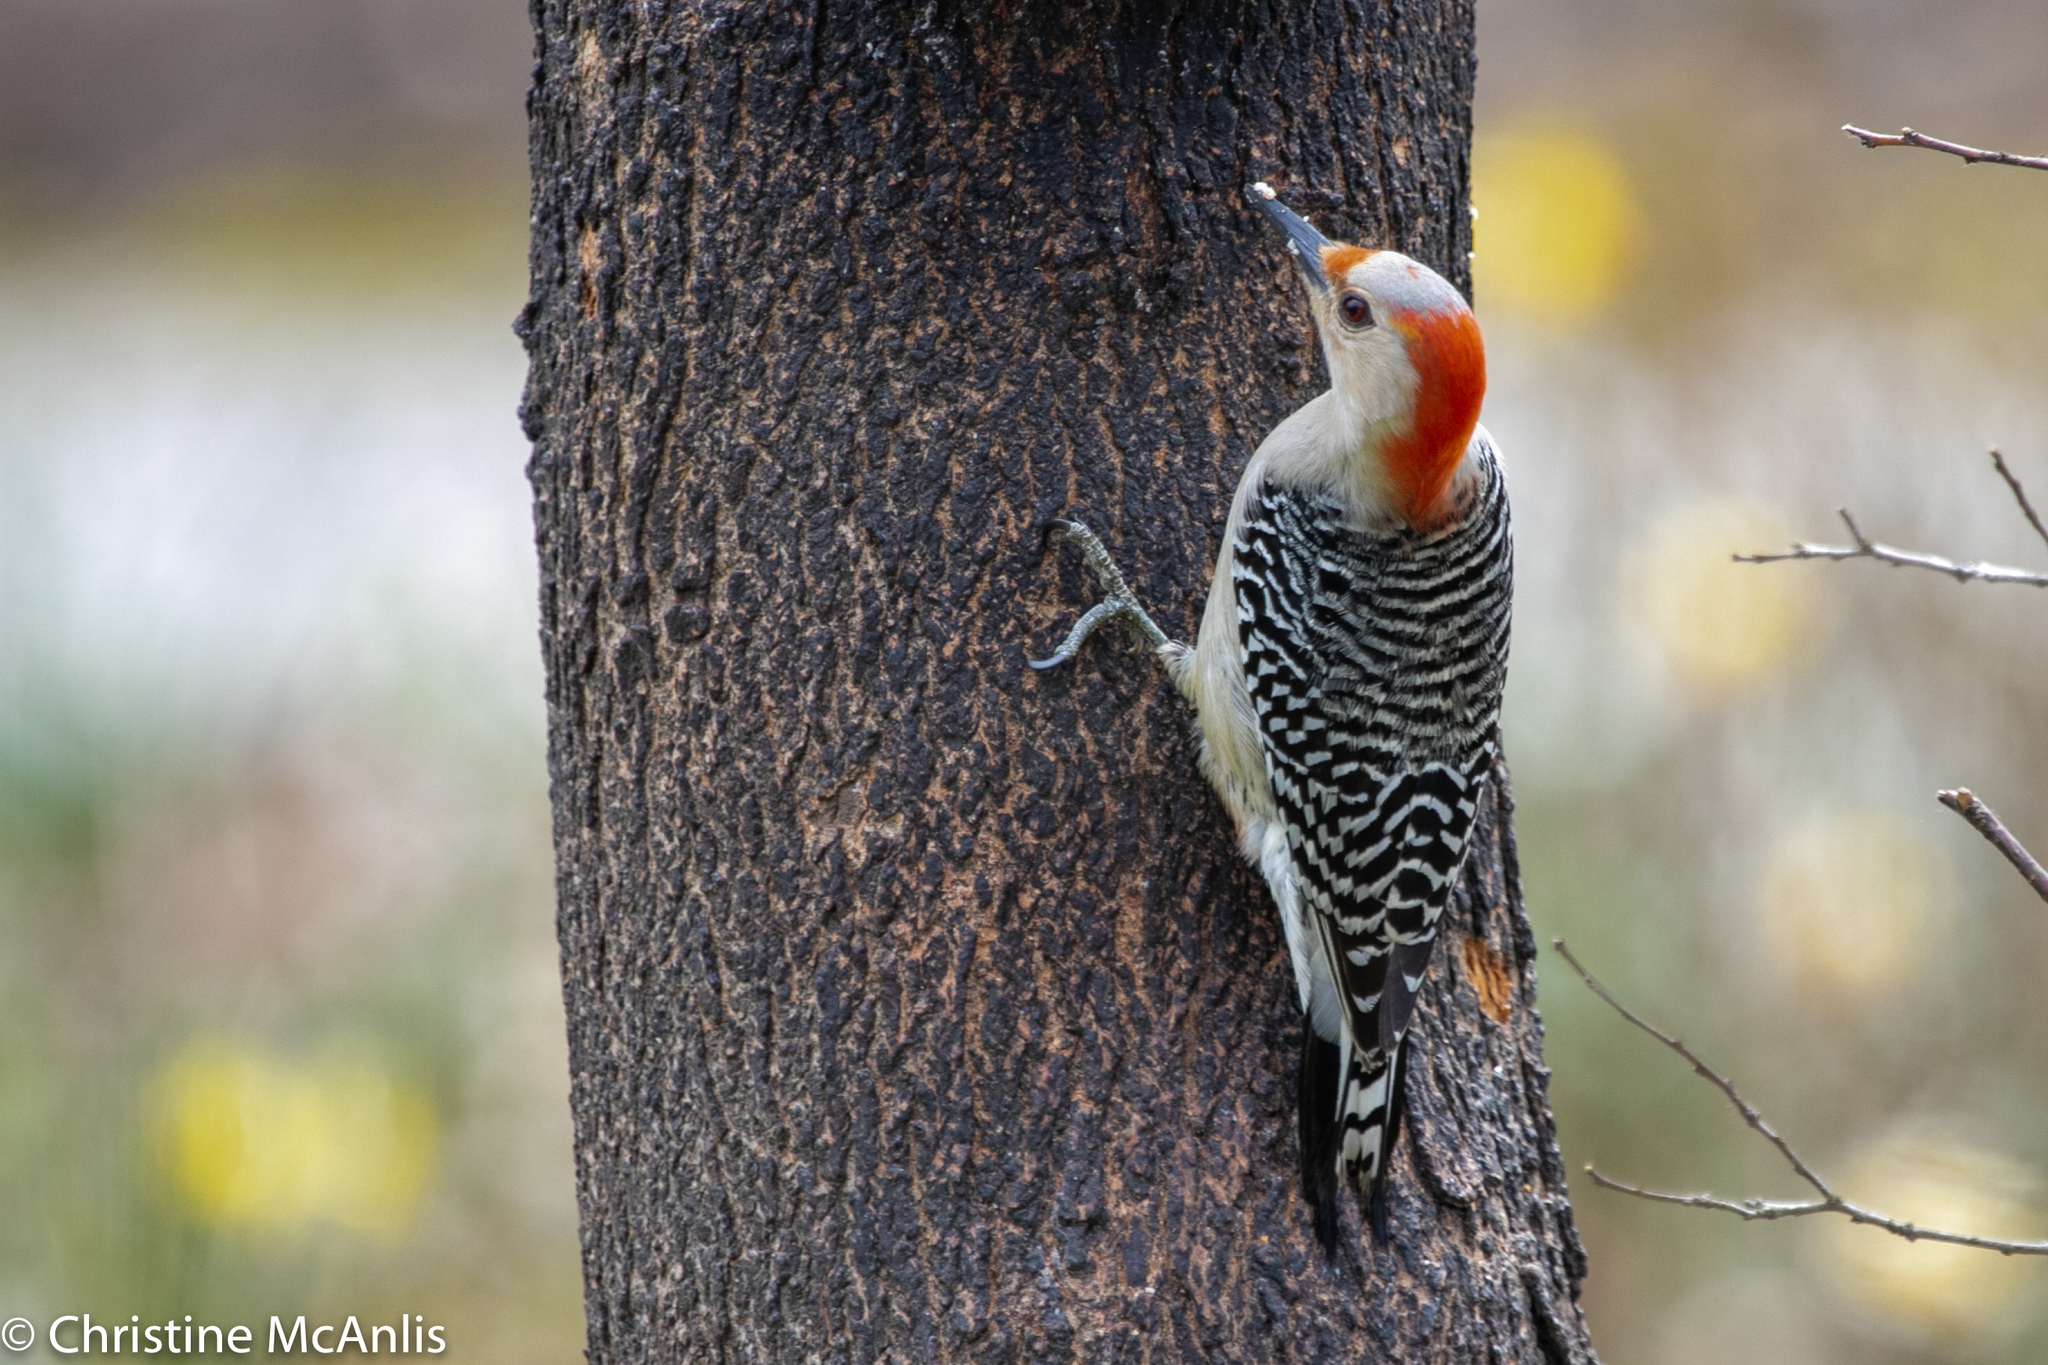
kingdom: Animalia
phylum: Chordata
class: Aves
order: Piciformes
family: Picidae
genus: Melanerpes
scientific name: Melanerpes carolinus
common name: Red-bellied woodpecker
